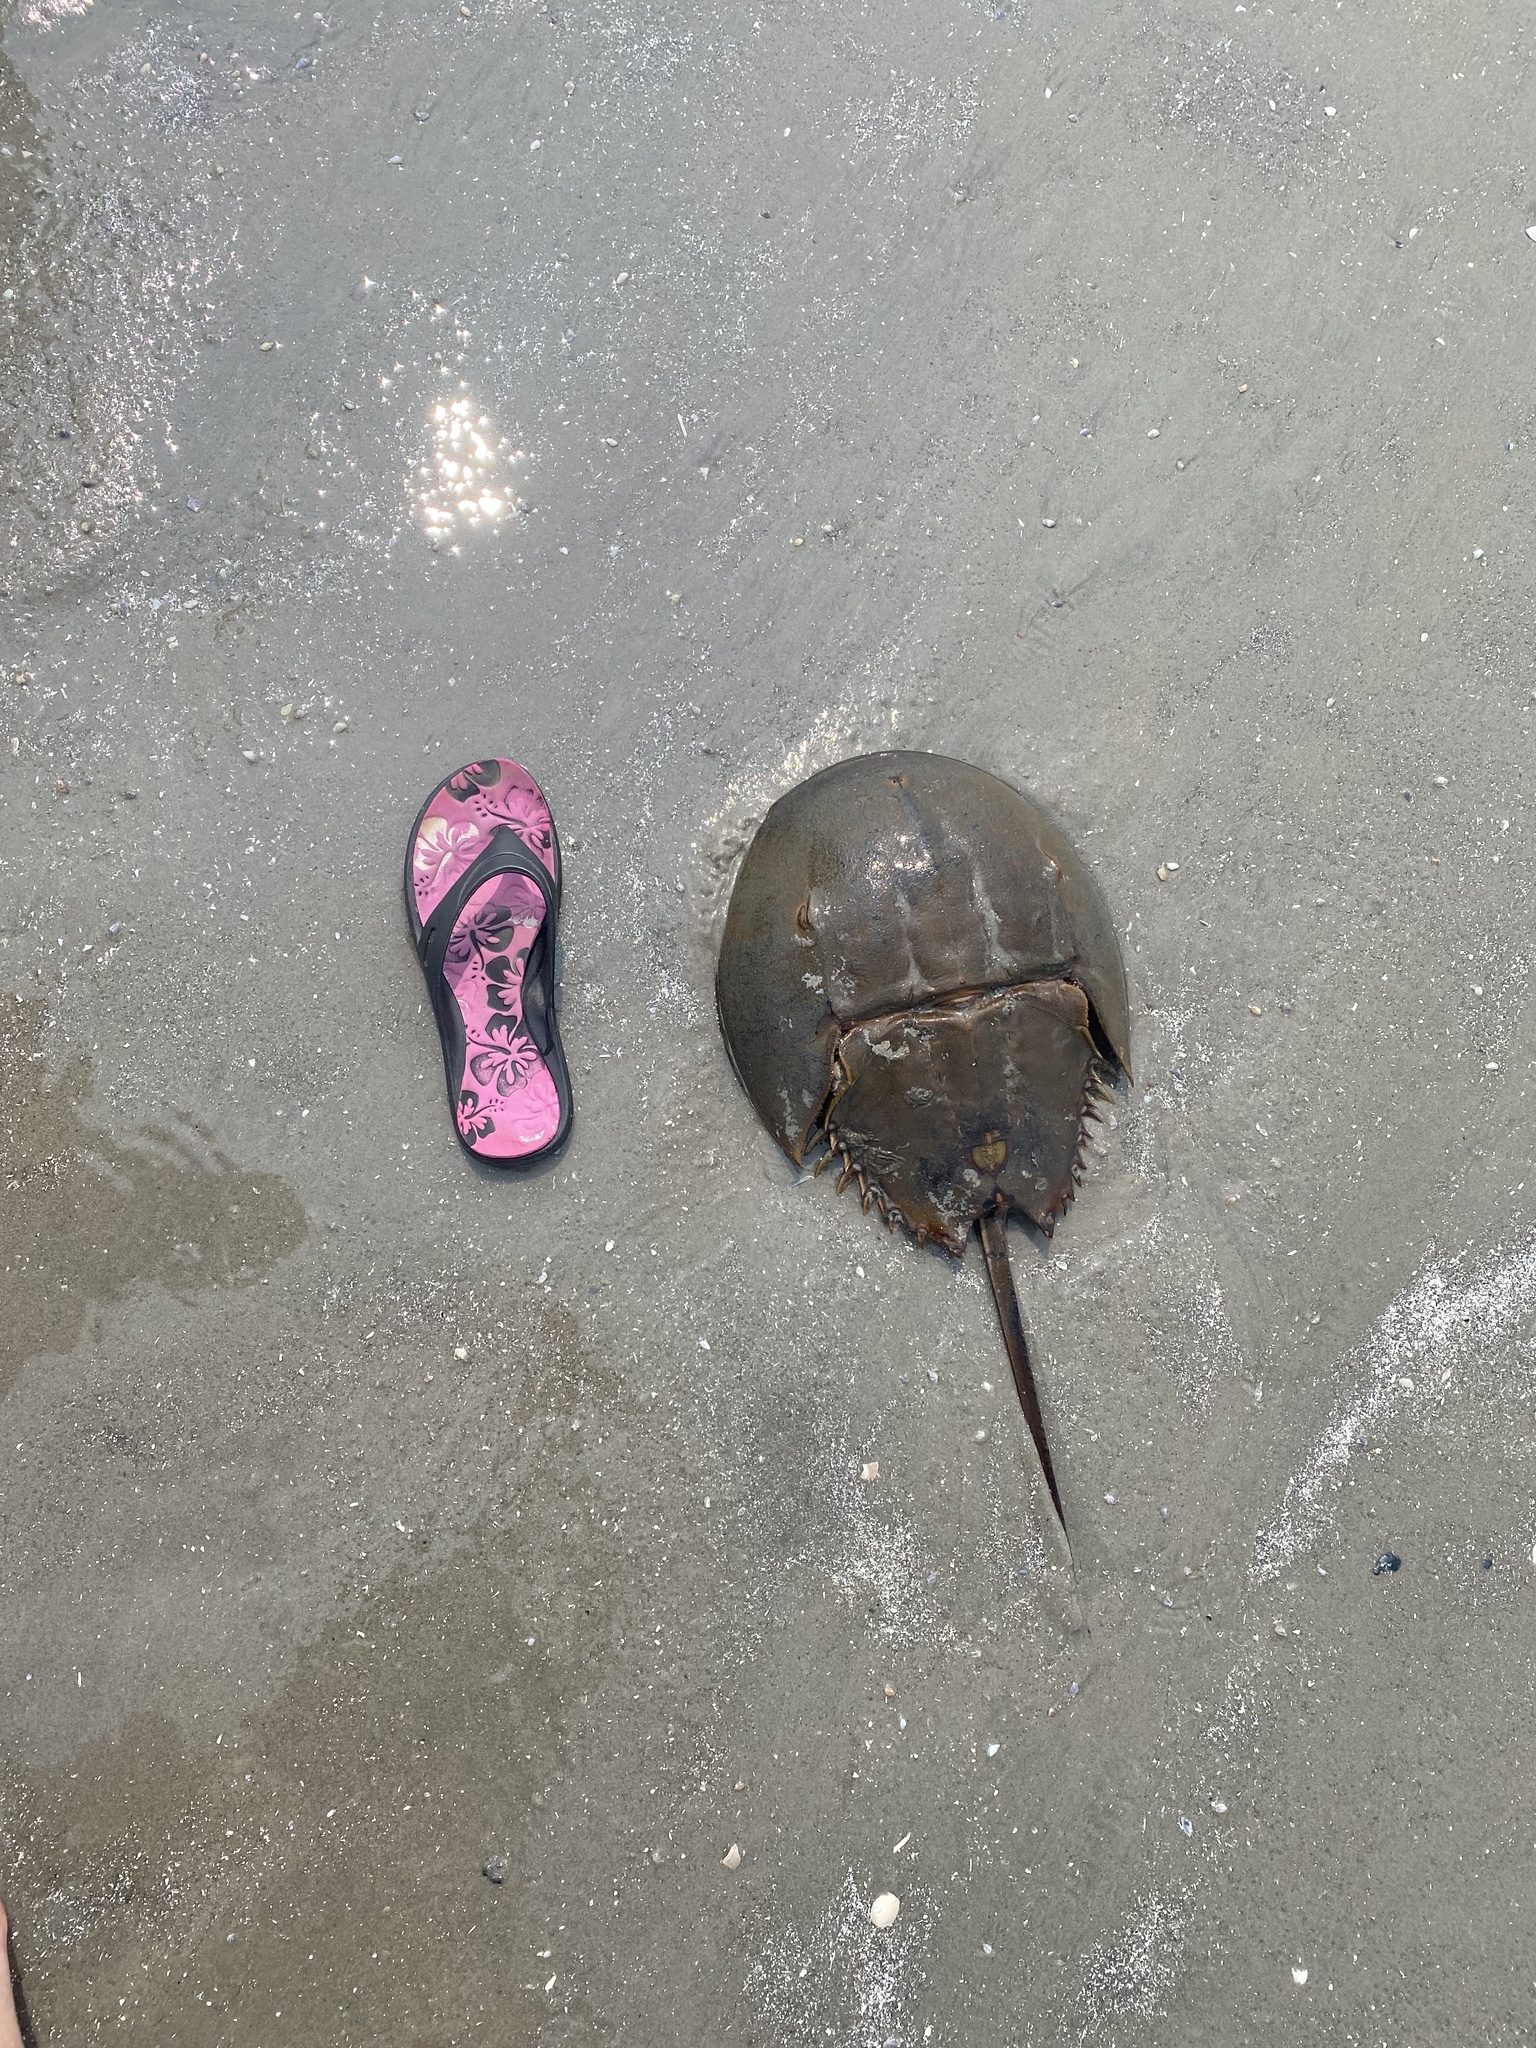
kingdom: Animalia
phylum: Arthropoda
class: Merostomata
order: Xiphosurida
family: Limulidae
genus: Limulus
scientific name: Limulus polyphemus
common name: Horseshoe crab
